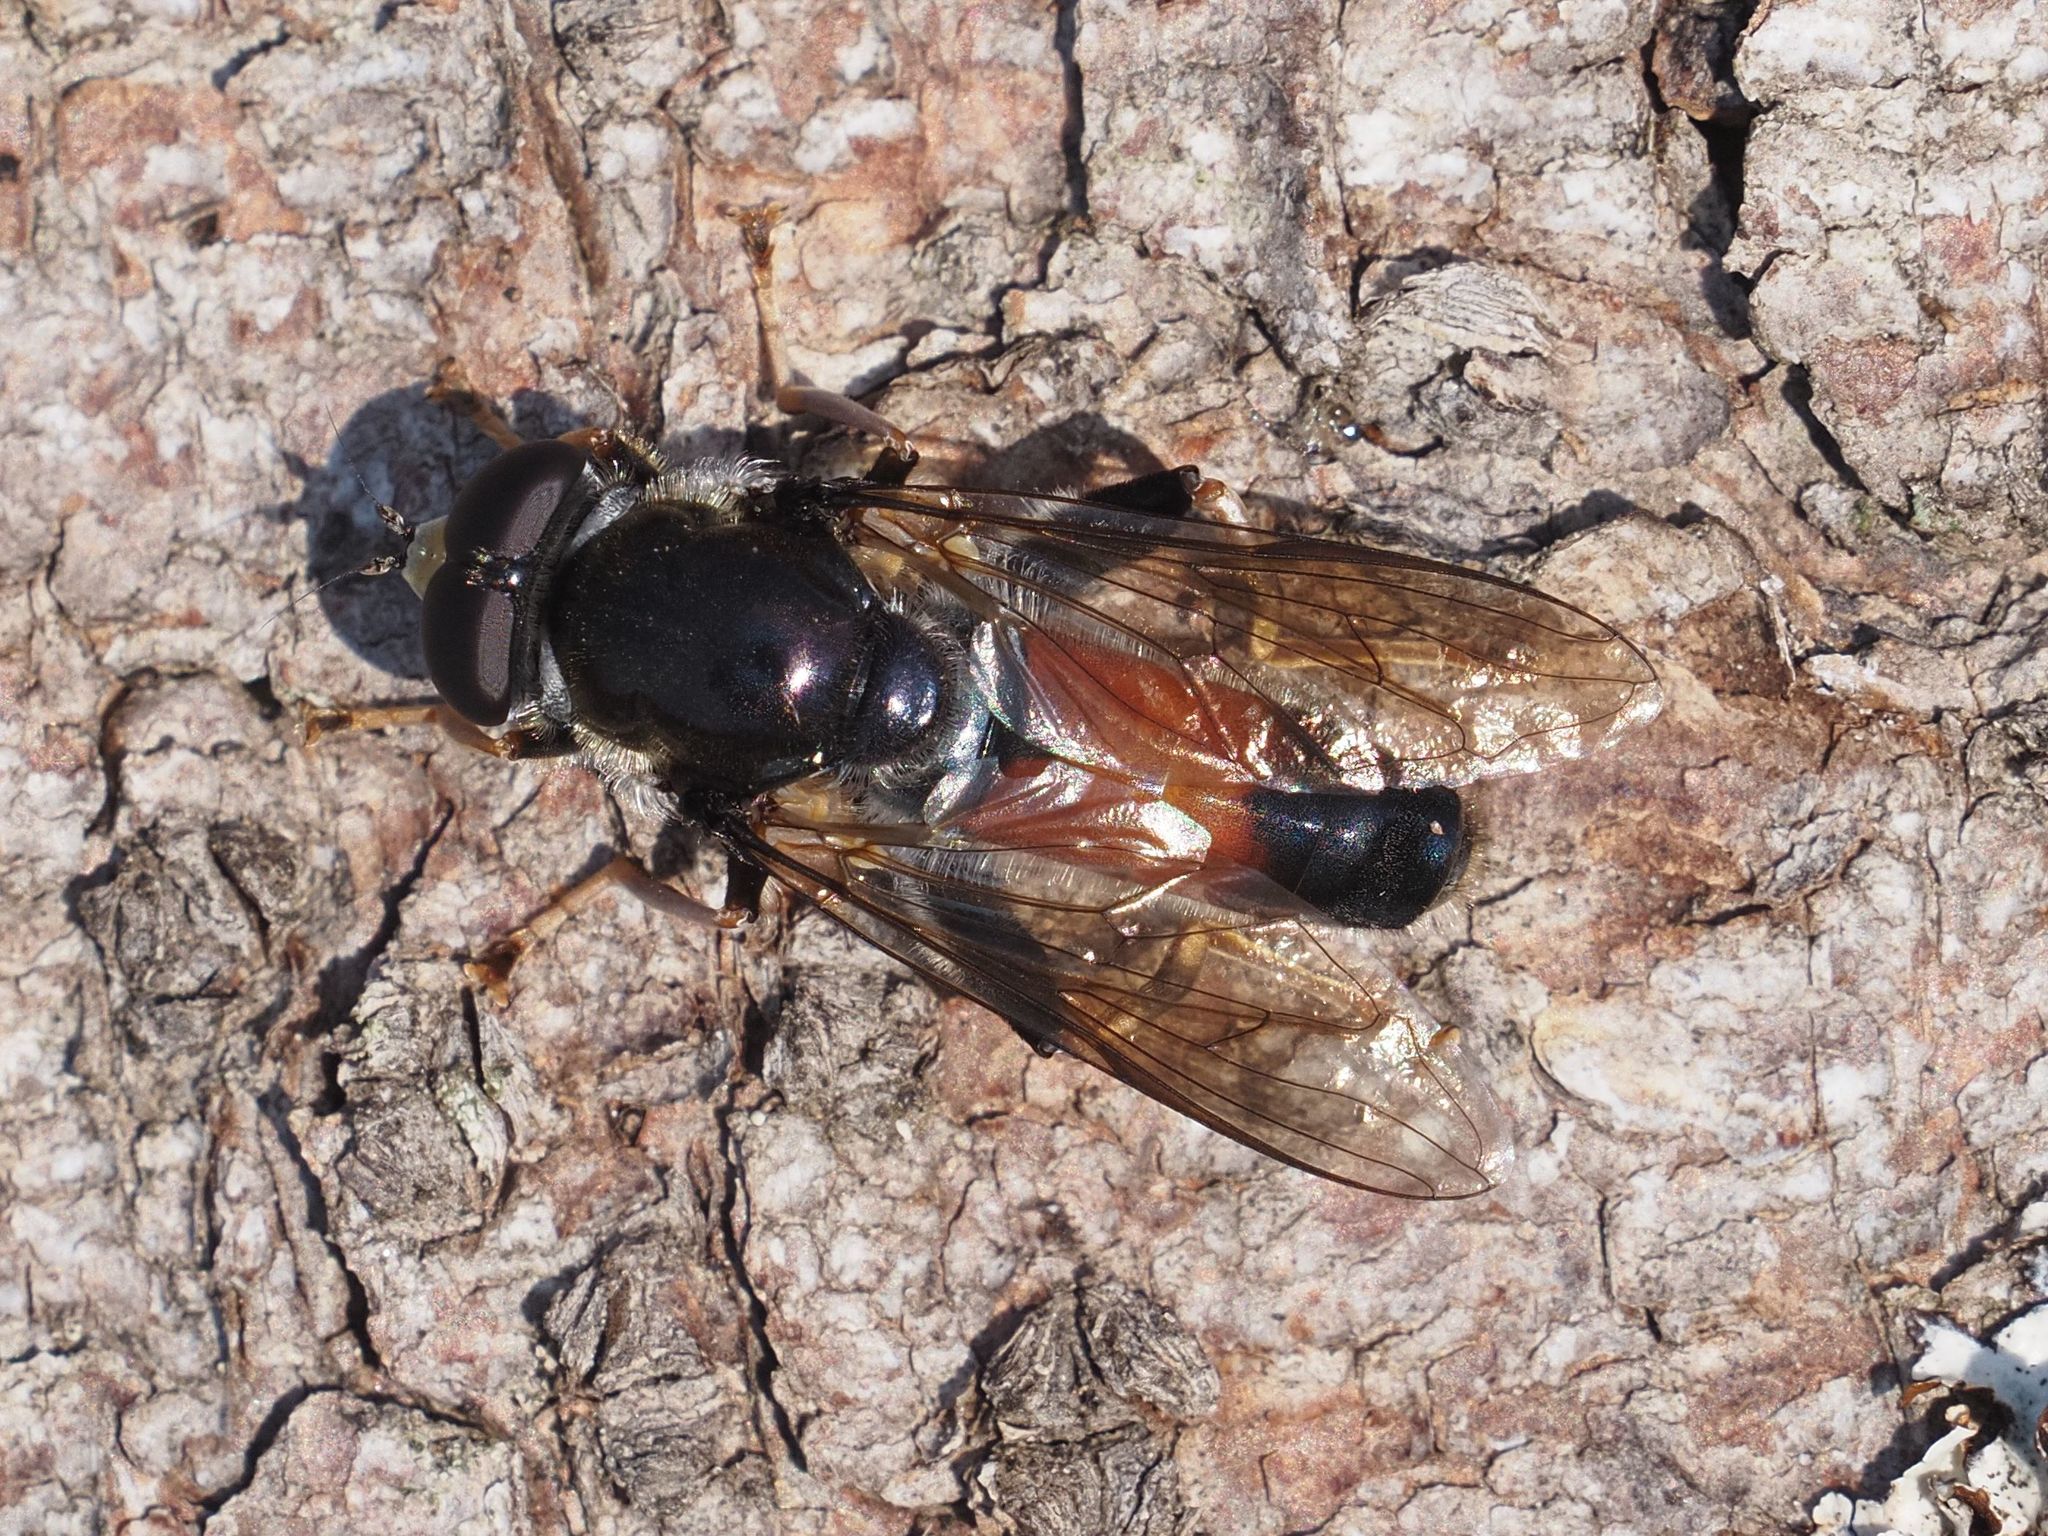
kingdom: Animalia
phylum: Arthropoda
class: Insecta
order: Diptera
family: Syrphidae
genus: Xylota
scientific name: Xylota ignava
